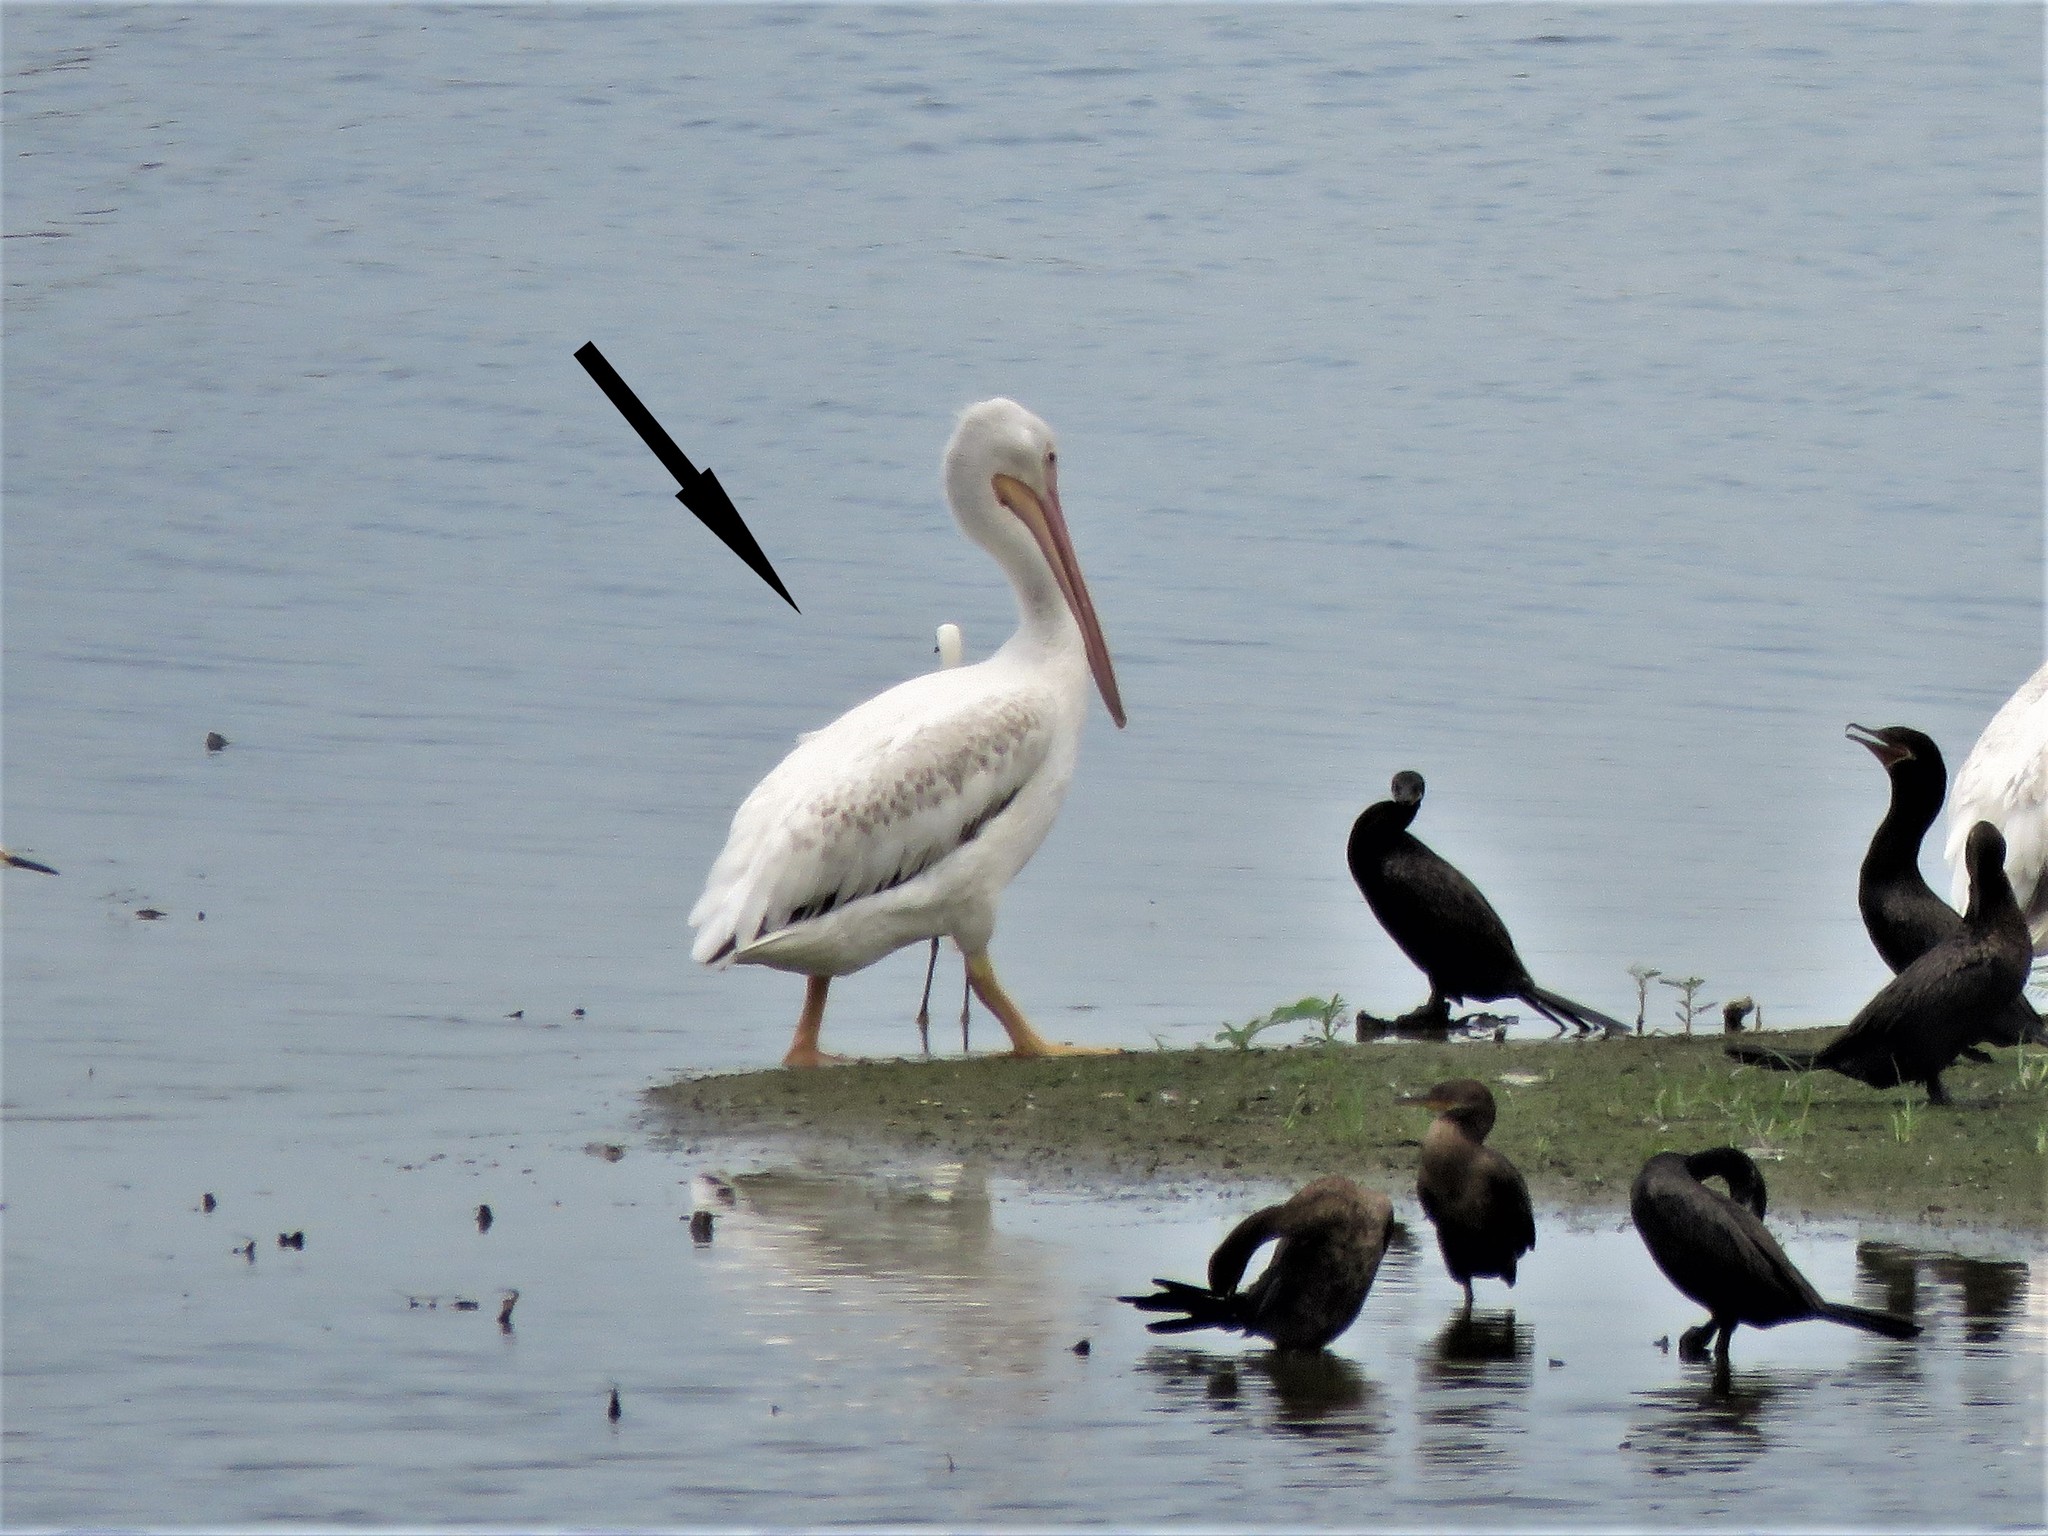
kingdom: Animalia
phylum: Chordata
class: Aves
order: Pelecaniformes
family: Pelecanidae
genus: Pelecanus
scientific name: Pelecanus erythrorhynchos
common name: American white pelican
